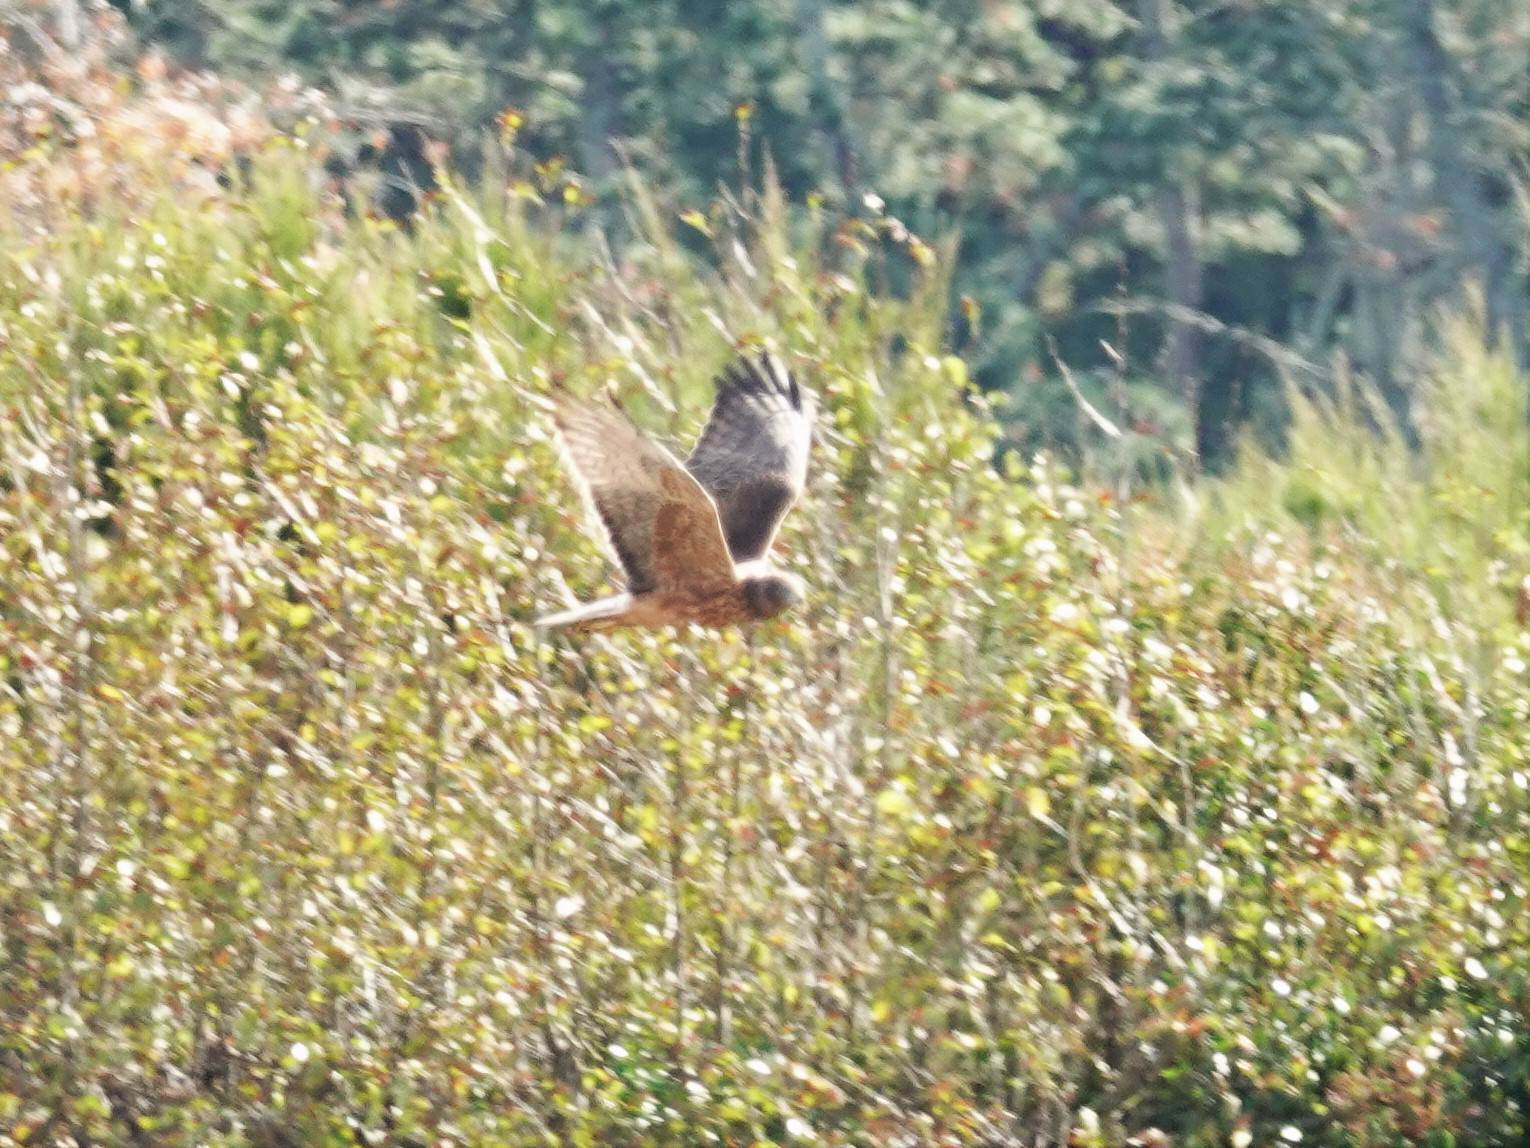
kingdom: Animalia
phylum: Chordata
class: Aves
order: Accipitriformes
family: Accipitridae
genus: Circus
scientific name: Circus approximans
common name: Swamp harrier
